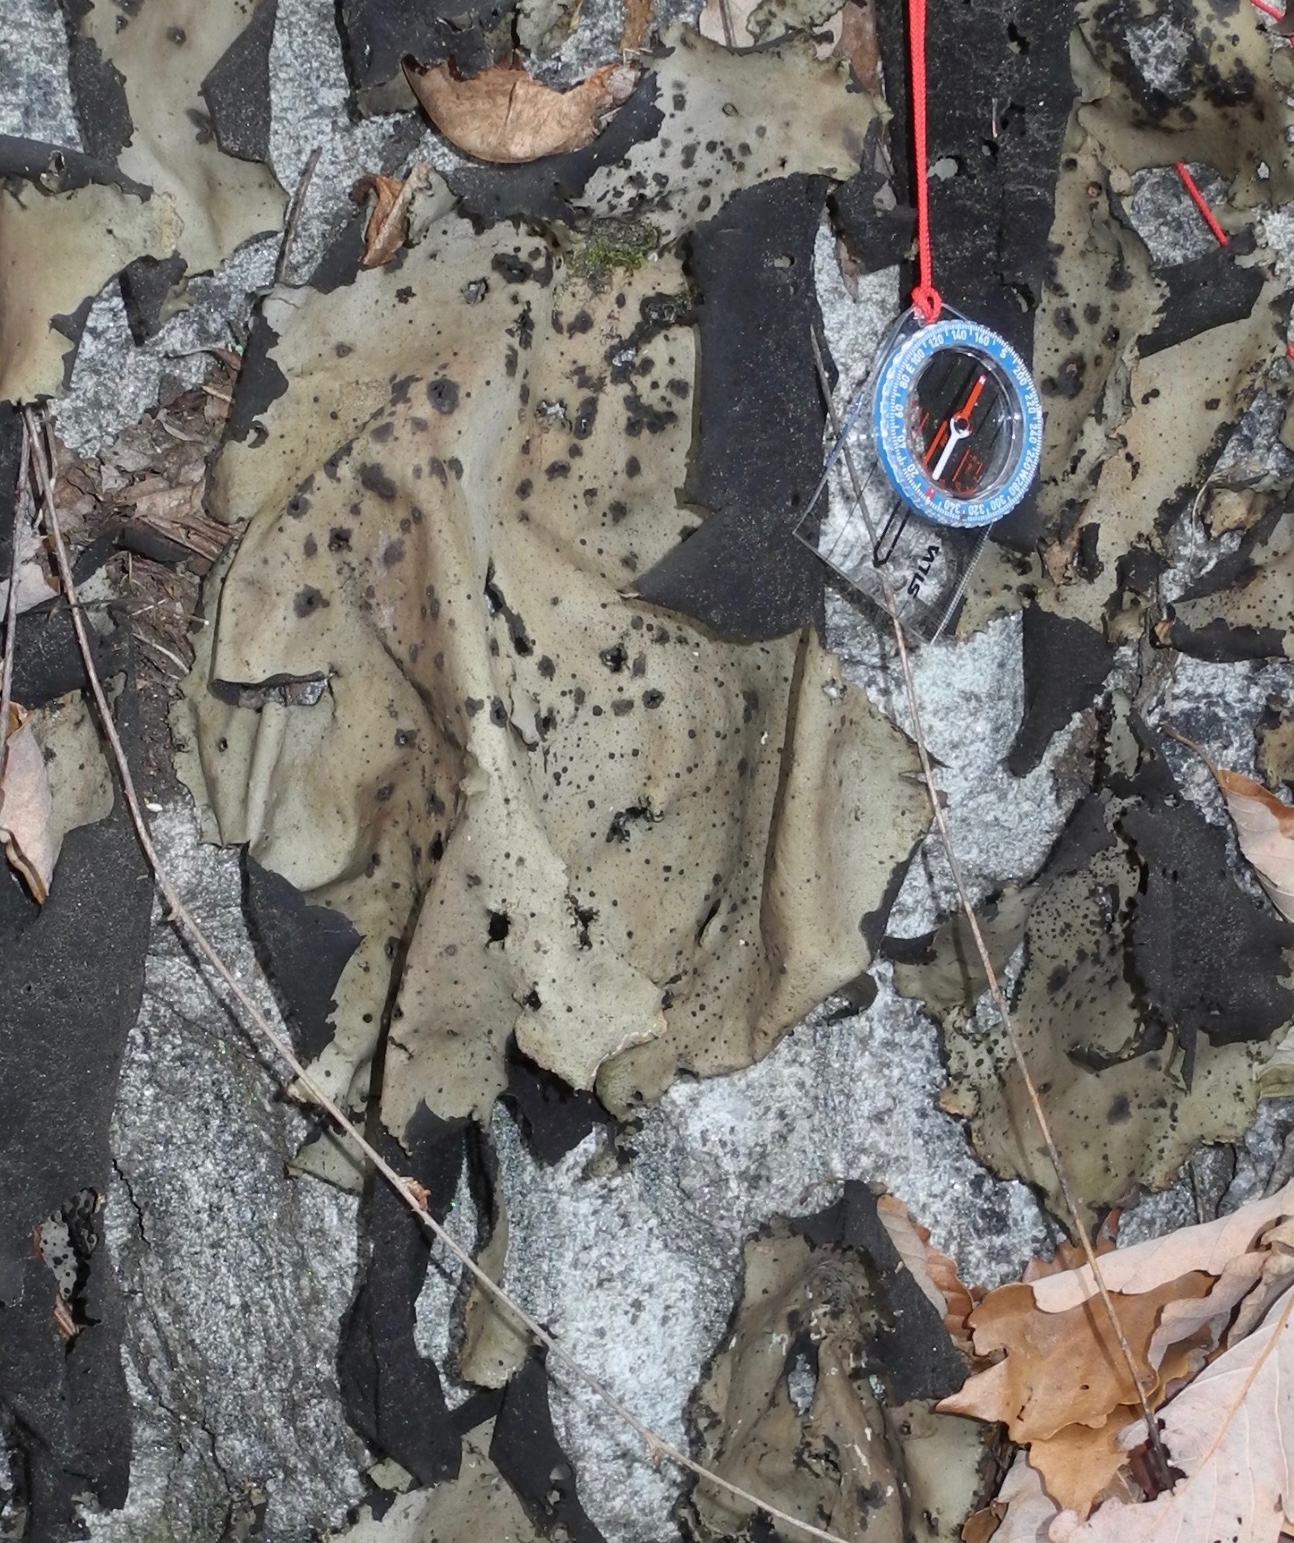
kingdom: Fungi
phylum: Ascomycota
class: Lecanoromycetes
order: Umbilicariales
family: Umbilicariaceae
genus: Umbilicaria
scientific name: Umbilicaria mammulata
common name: Smooth rock tripe
